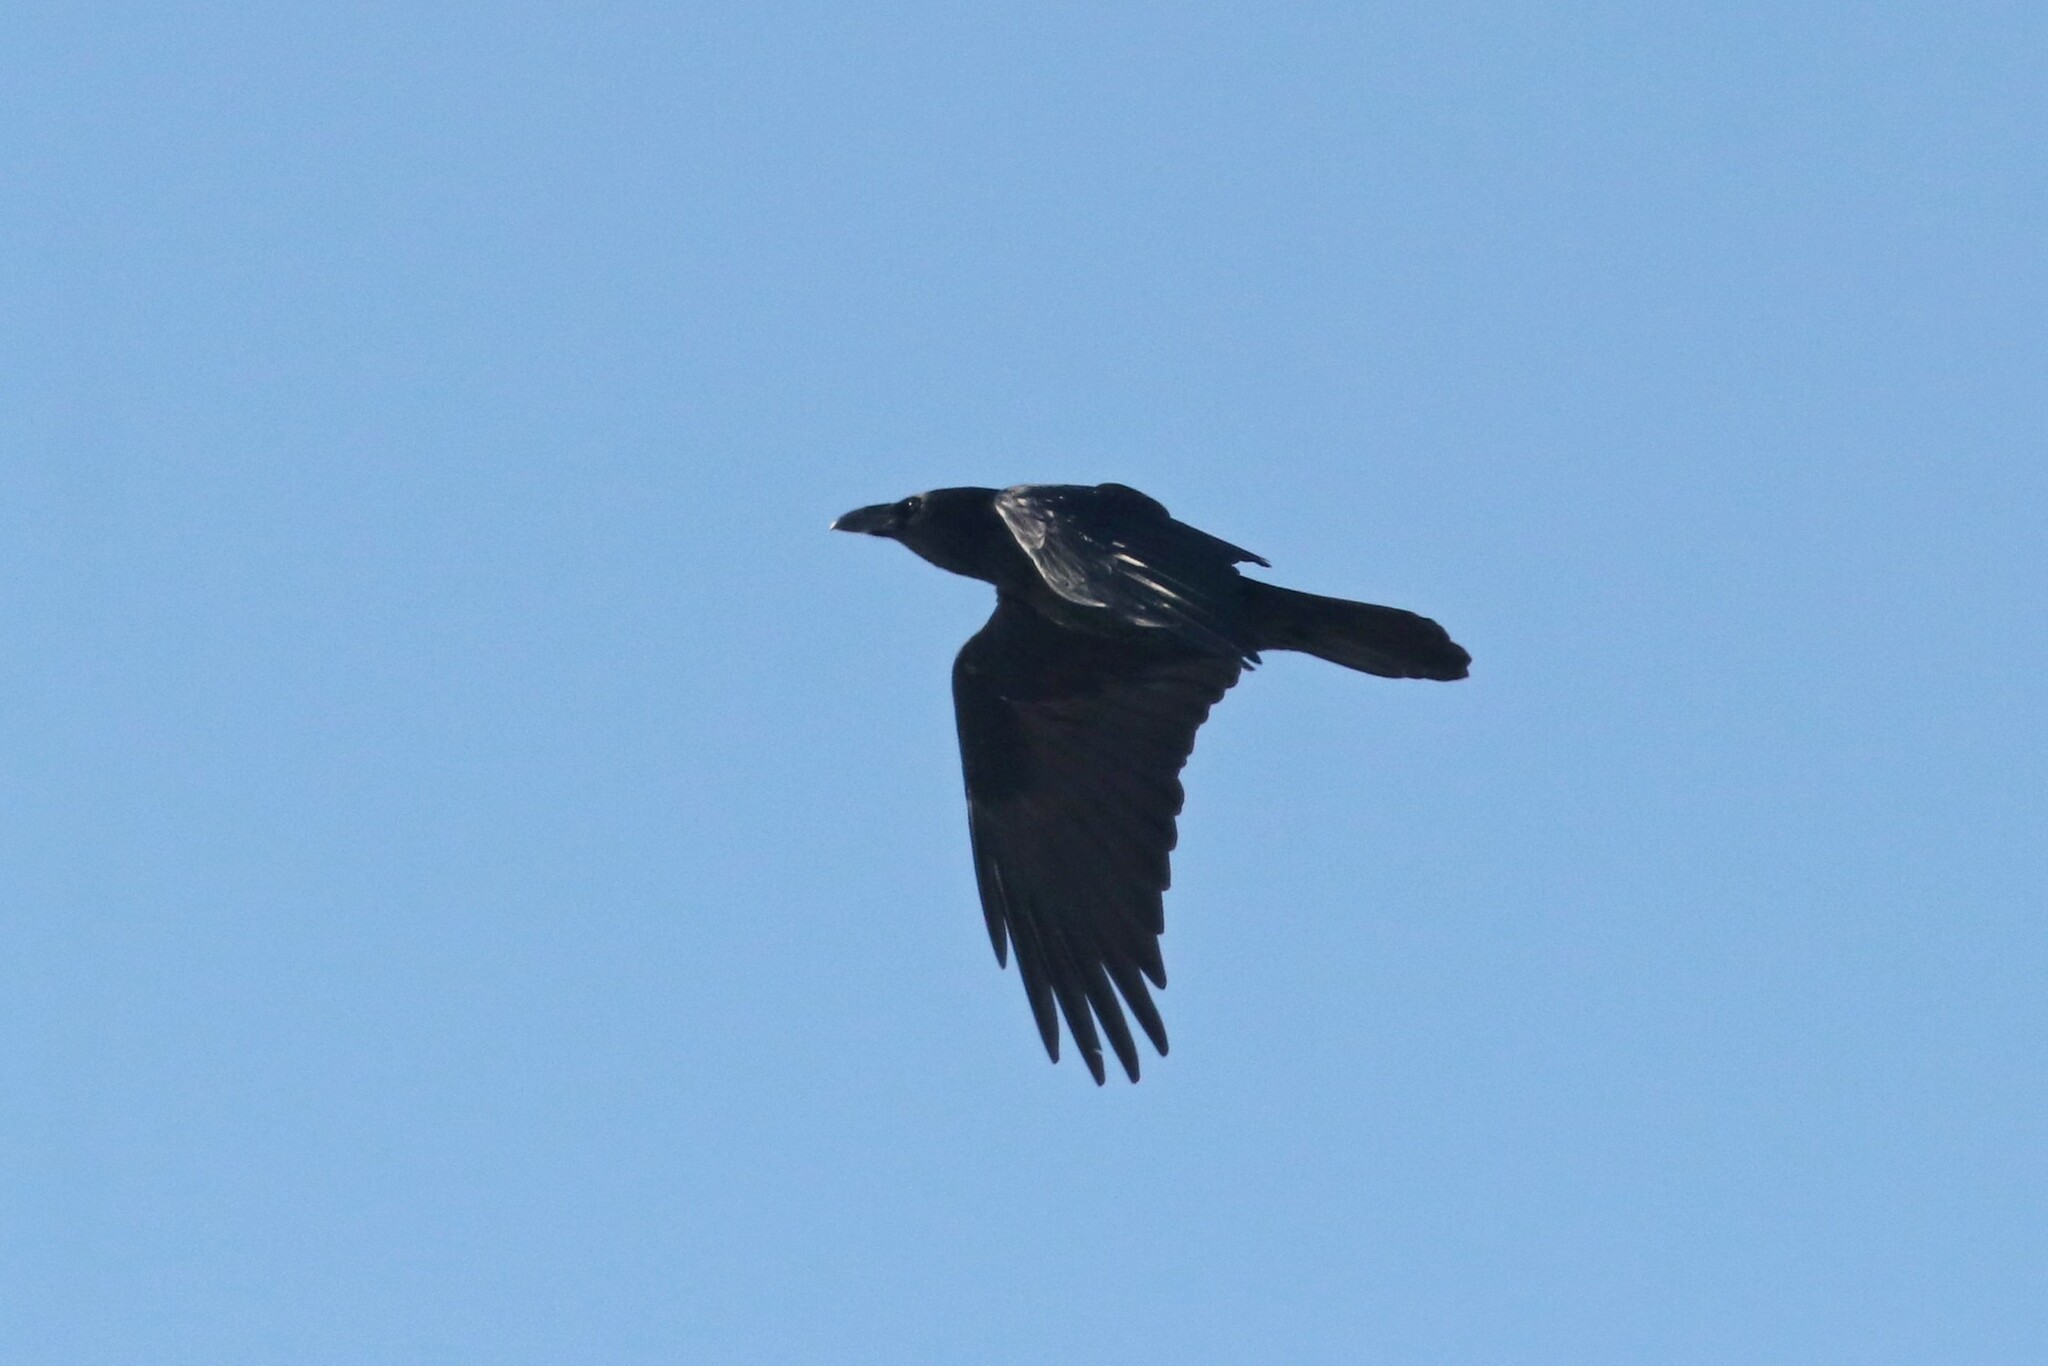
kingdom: Animalia
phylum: Chordata
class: Aves
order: Passeriformes
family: Corvidae
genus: Corvus
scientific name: Corvus corax
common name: Common raven
